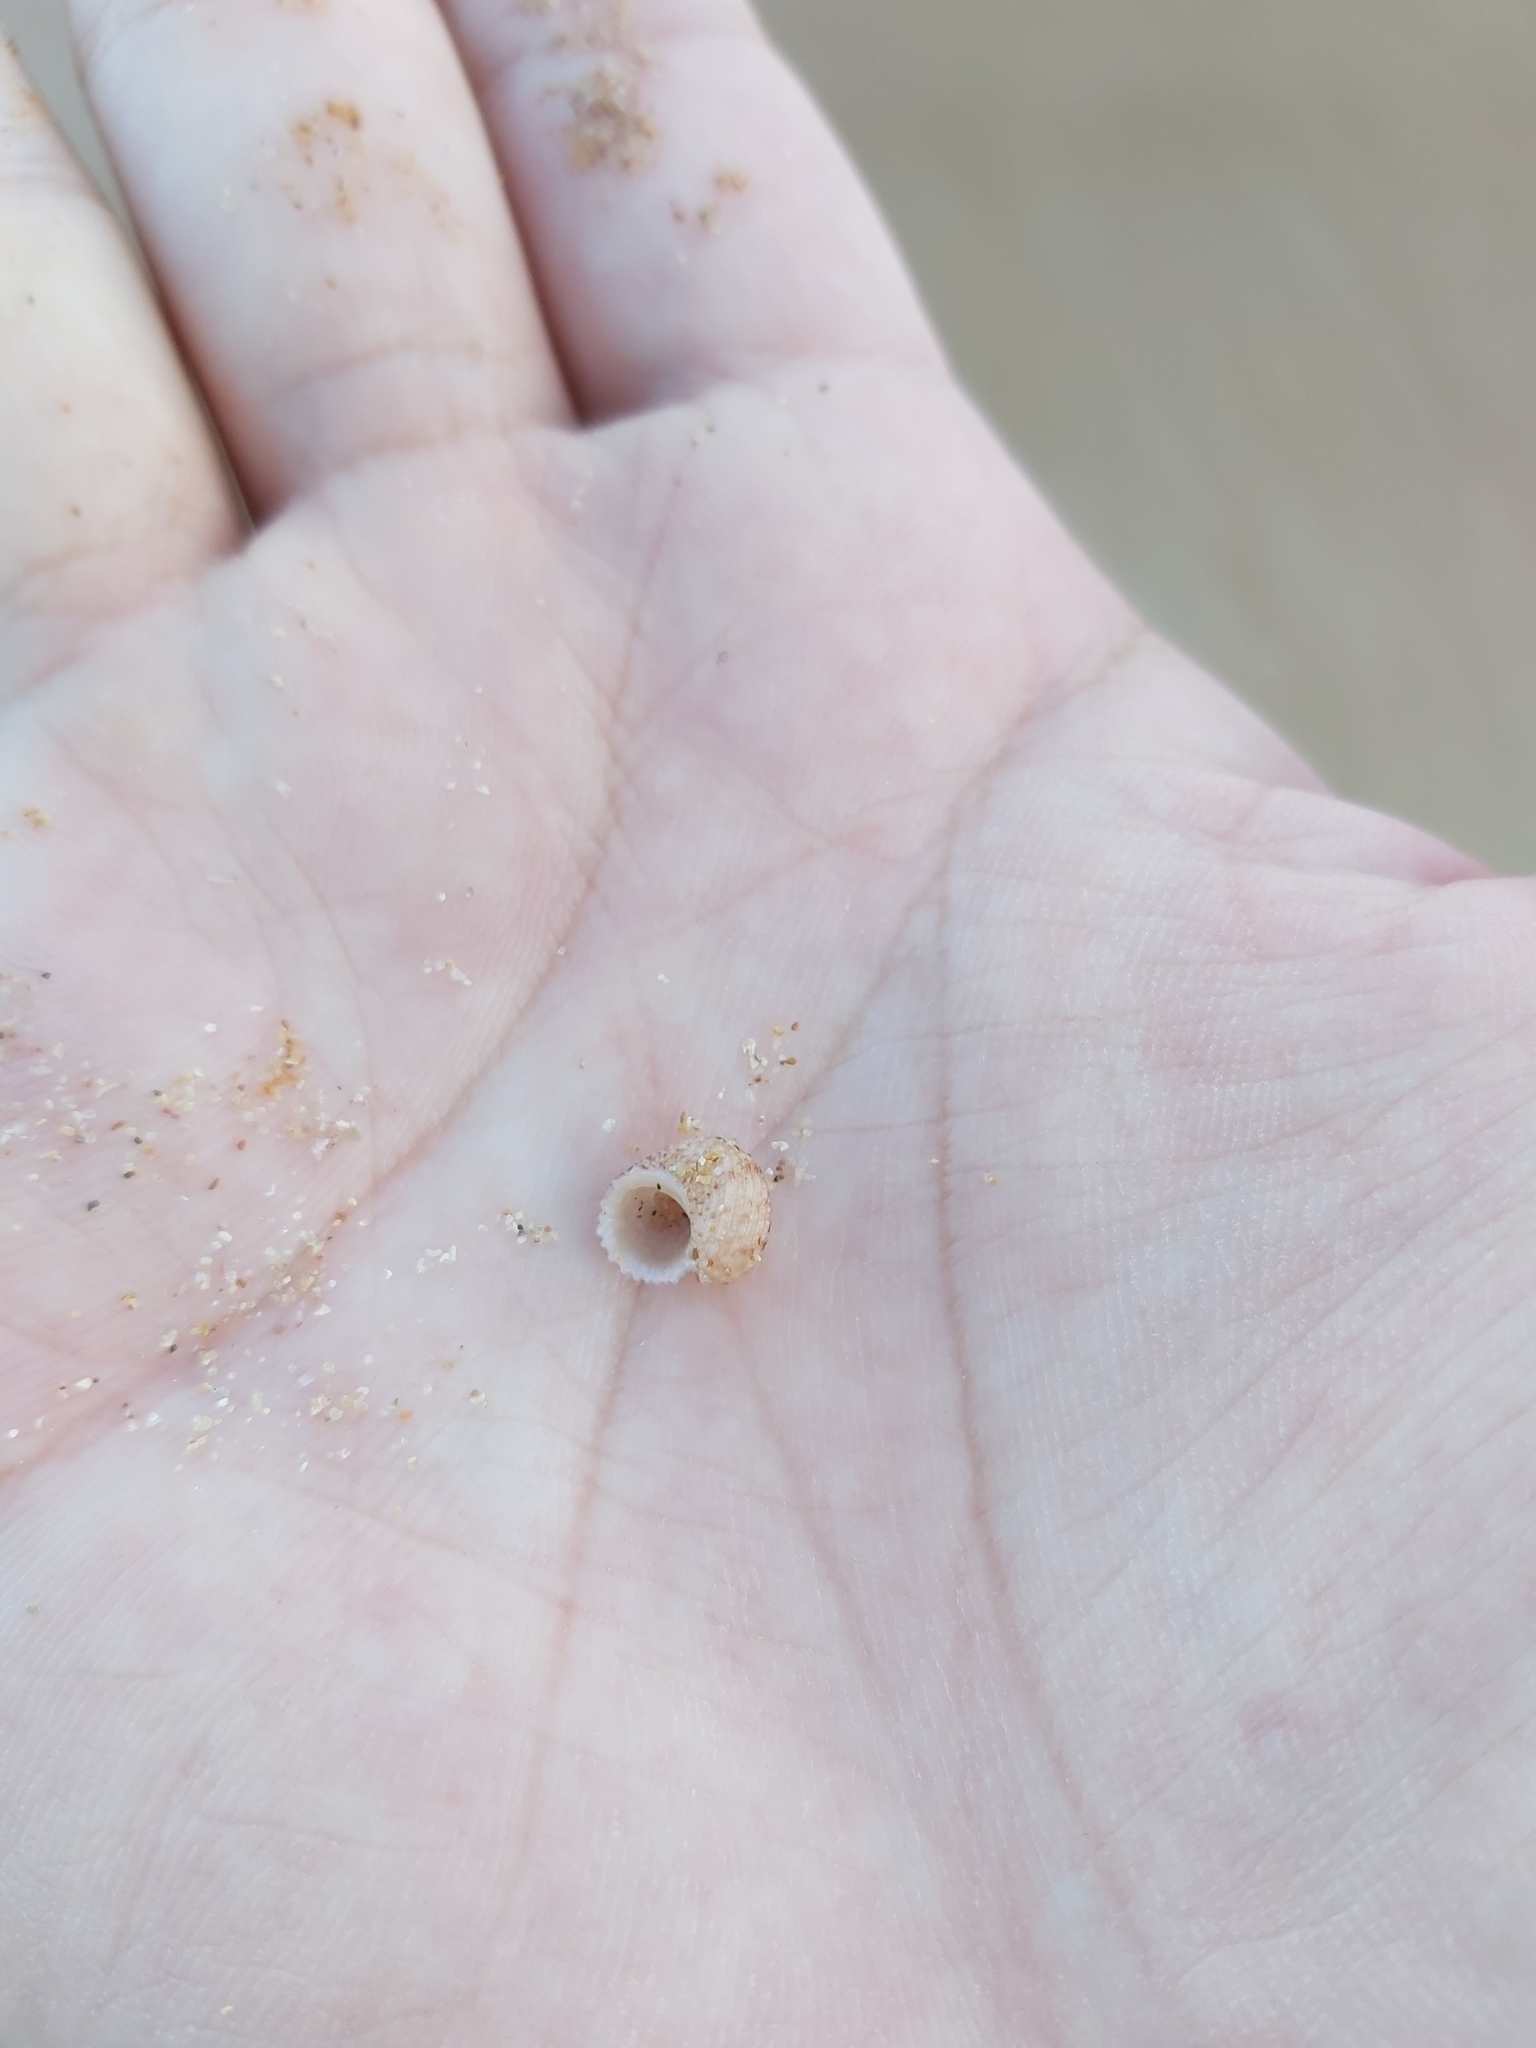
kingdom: Animalia
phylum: Mollusca
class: Gastropoda
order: Seguenziida
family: Chilodontaidae
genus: Herpetopoma
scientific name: Herpetopoma aspersum
